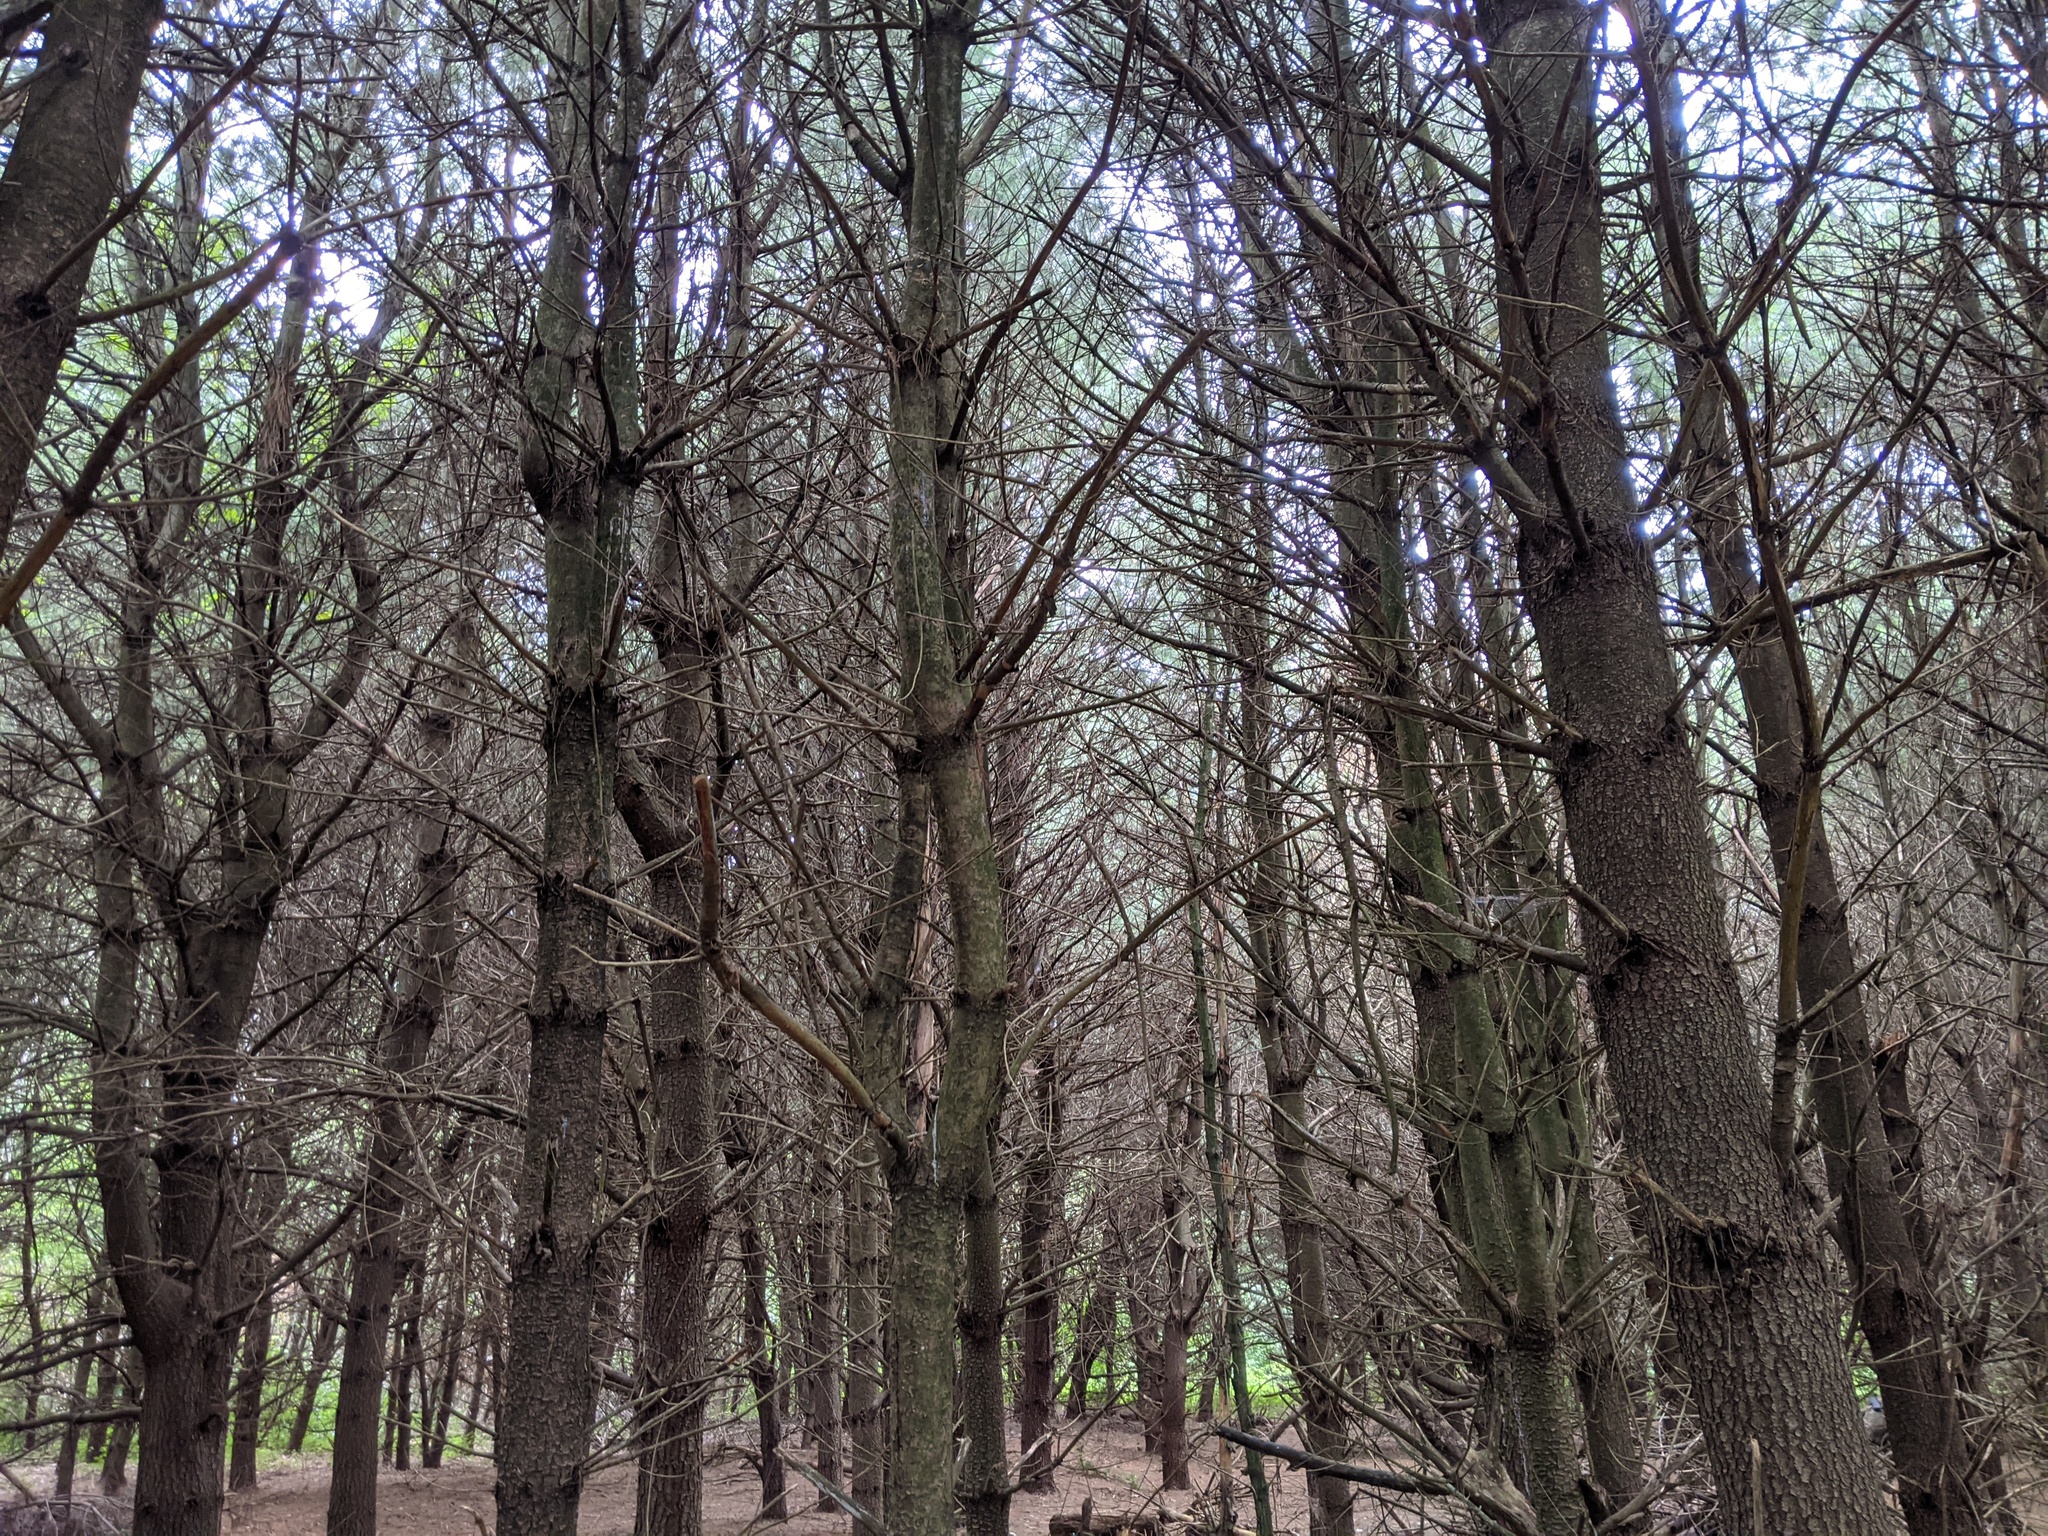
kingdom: Plantae
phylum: Tracheophyta
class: Pinopsida
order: Pinales
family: Pinaceae
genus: Pinus
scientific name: Pinus strobus
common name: Weymouth pine
